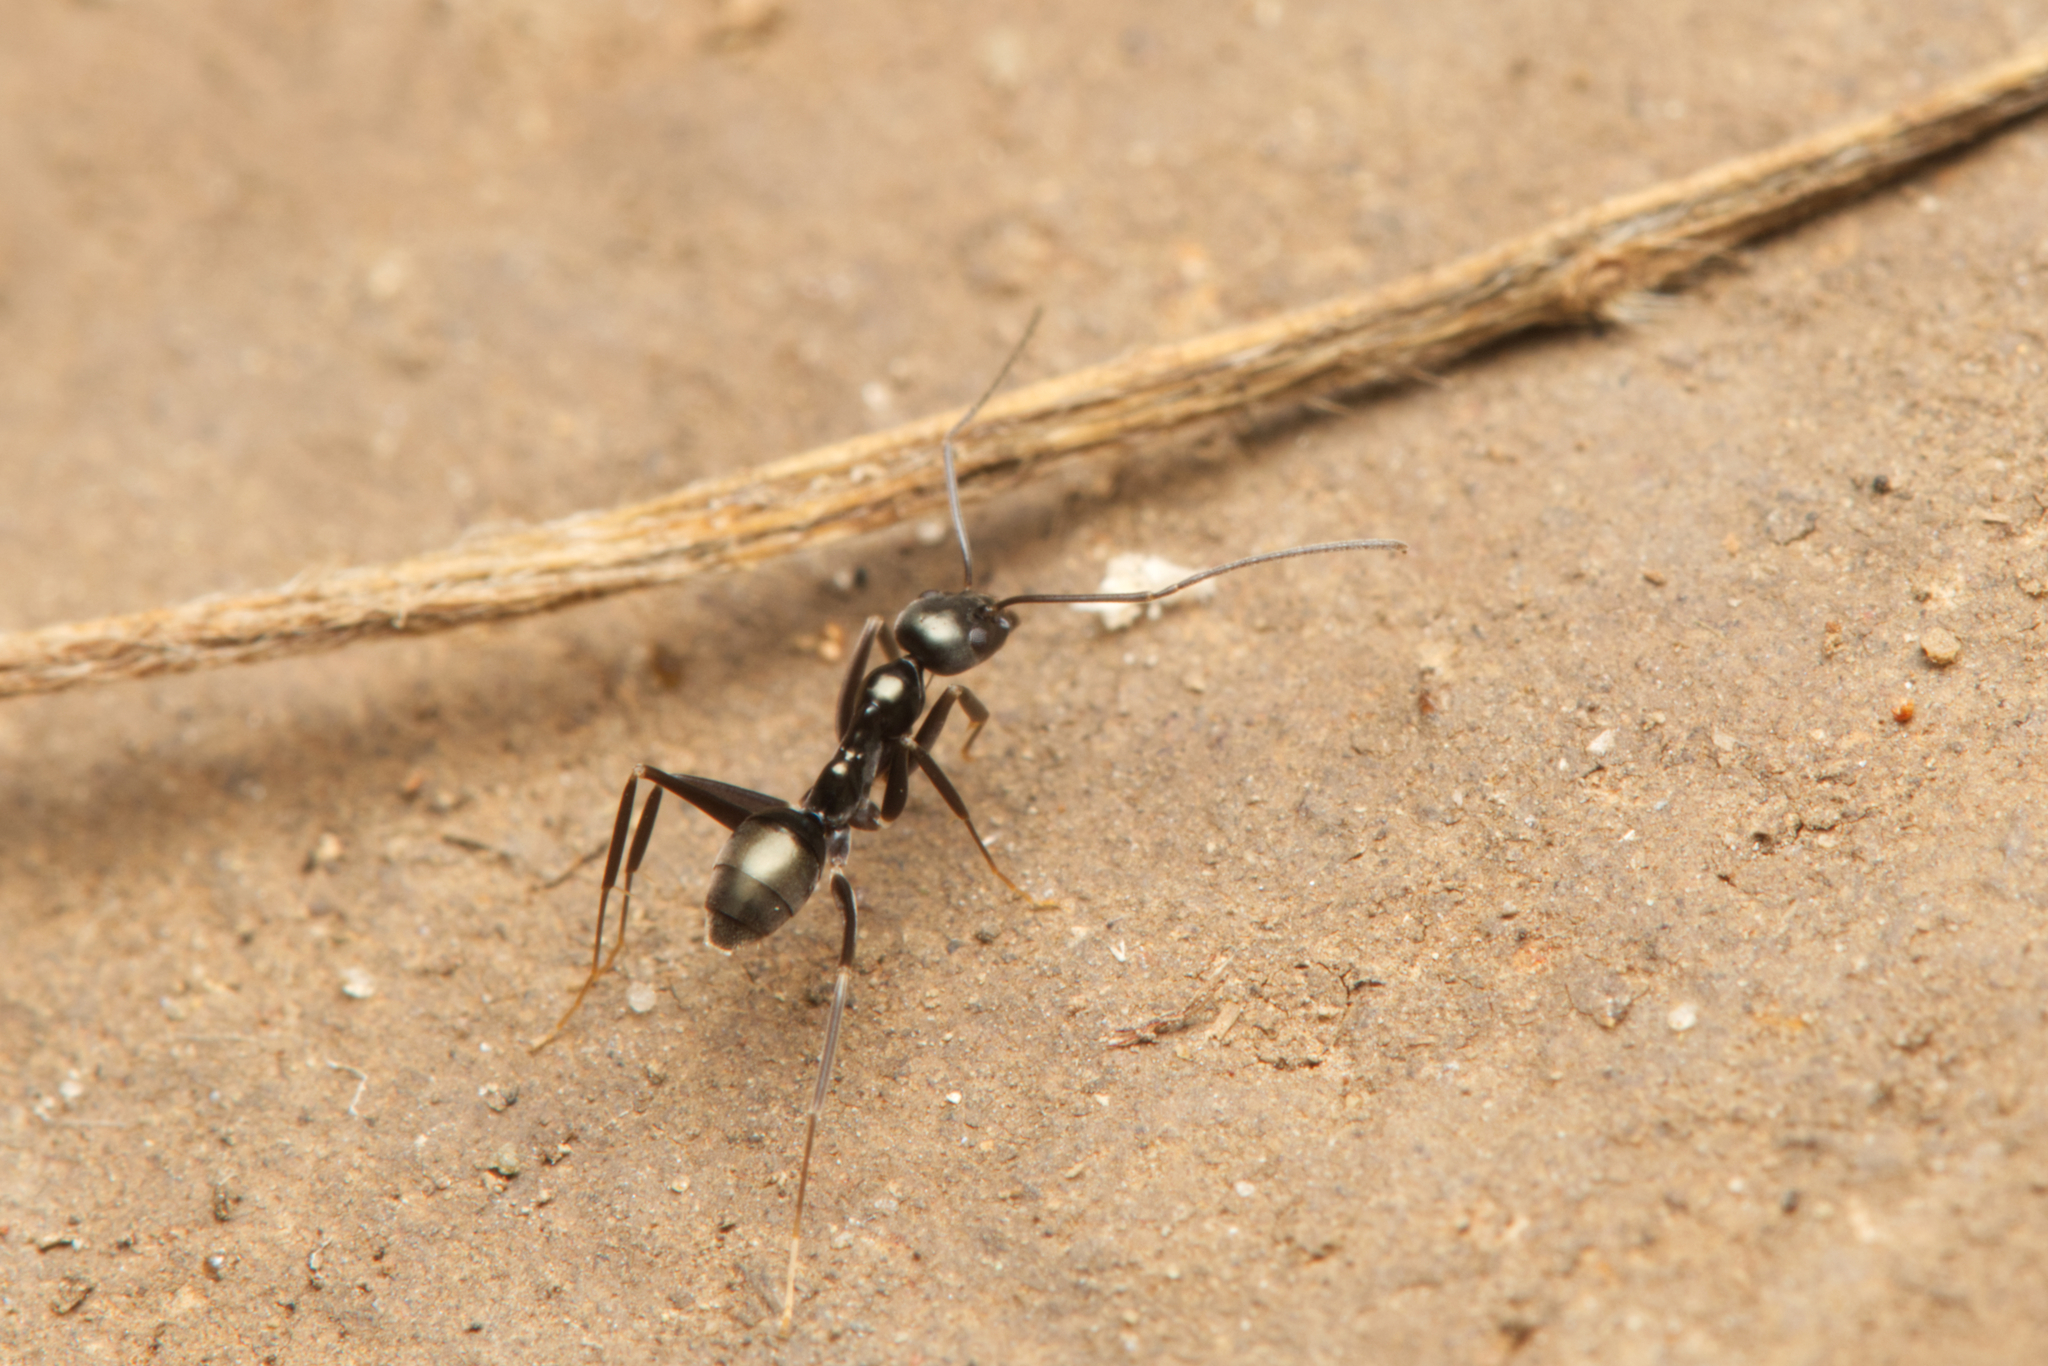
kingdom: Animalia
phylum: Arthropoda
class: Insecta
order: Hymenoptera
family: Formicidae
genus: Leptomyrmex
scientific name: Leptomyrmex burwelli
